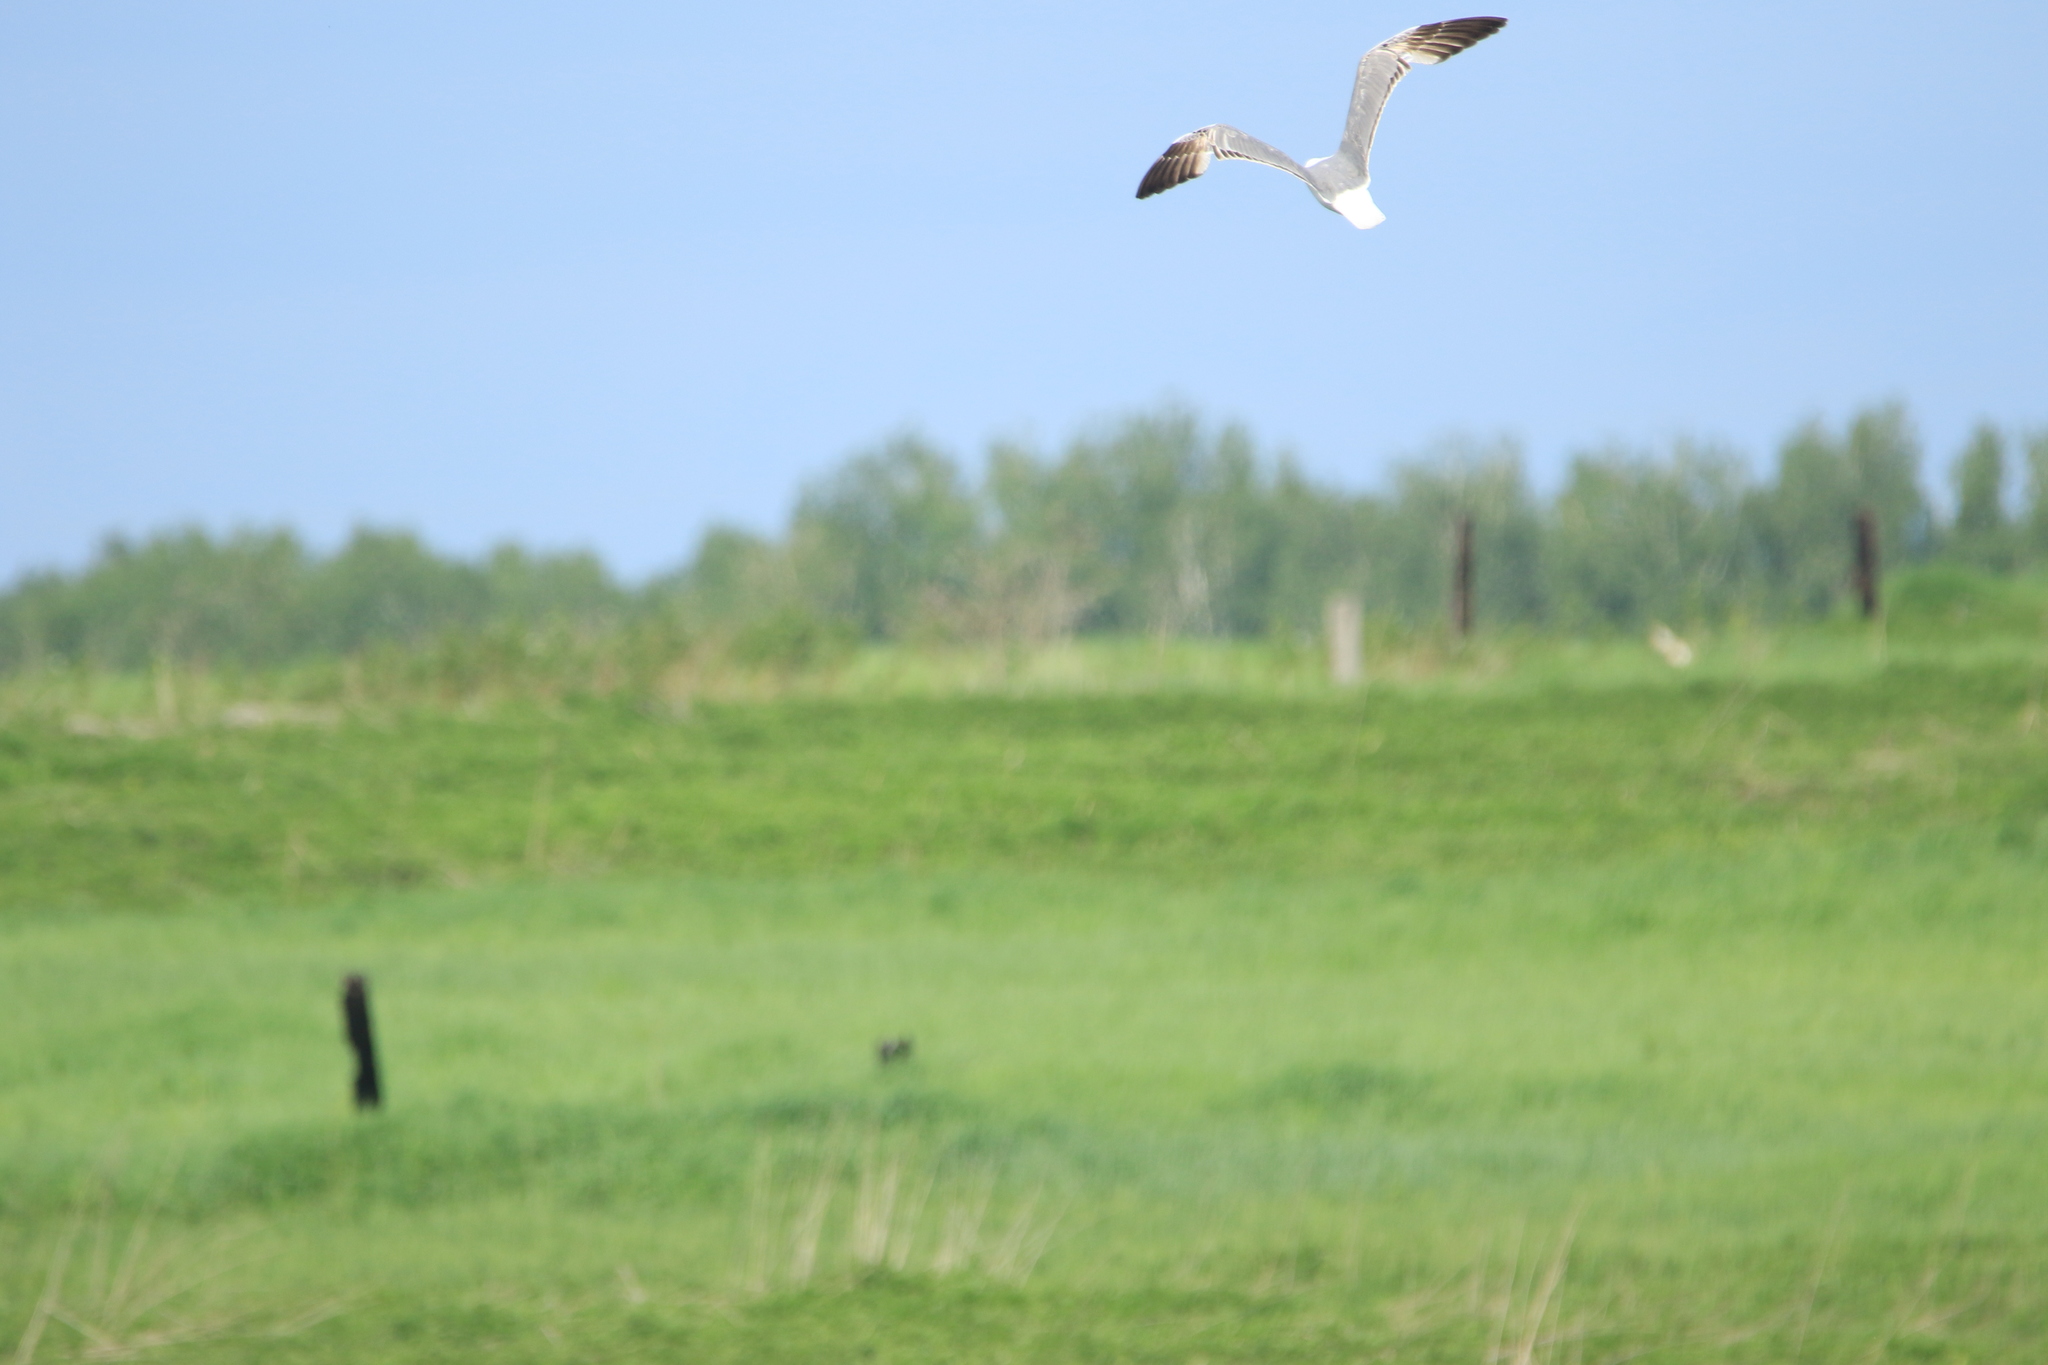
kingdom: Animalia
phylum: Chordata
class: Aves
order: Charadriiformes
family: Laridae
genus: Larus
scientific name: Larus fuscus
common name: Lesser black-backed gull
